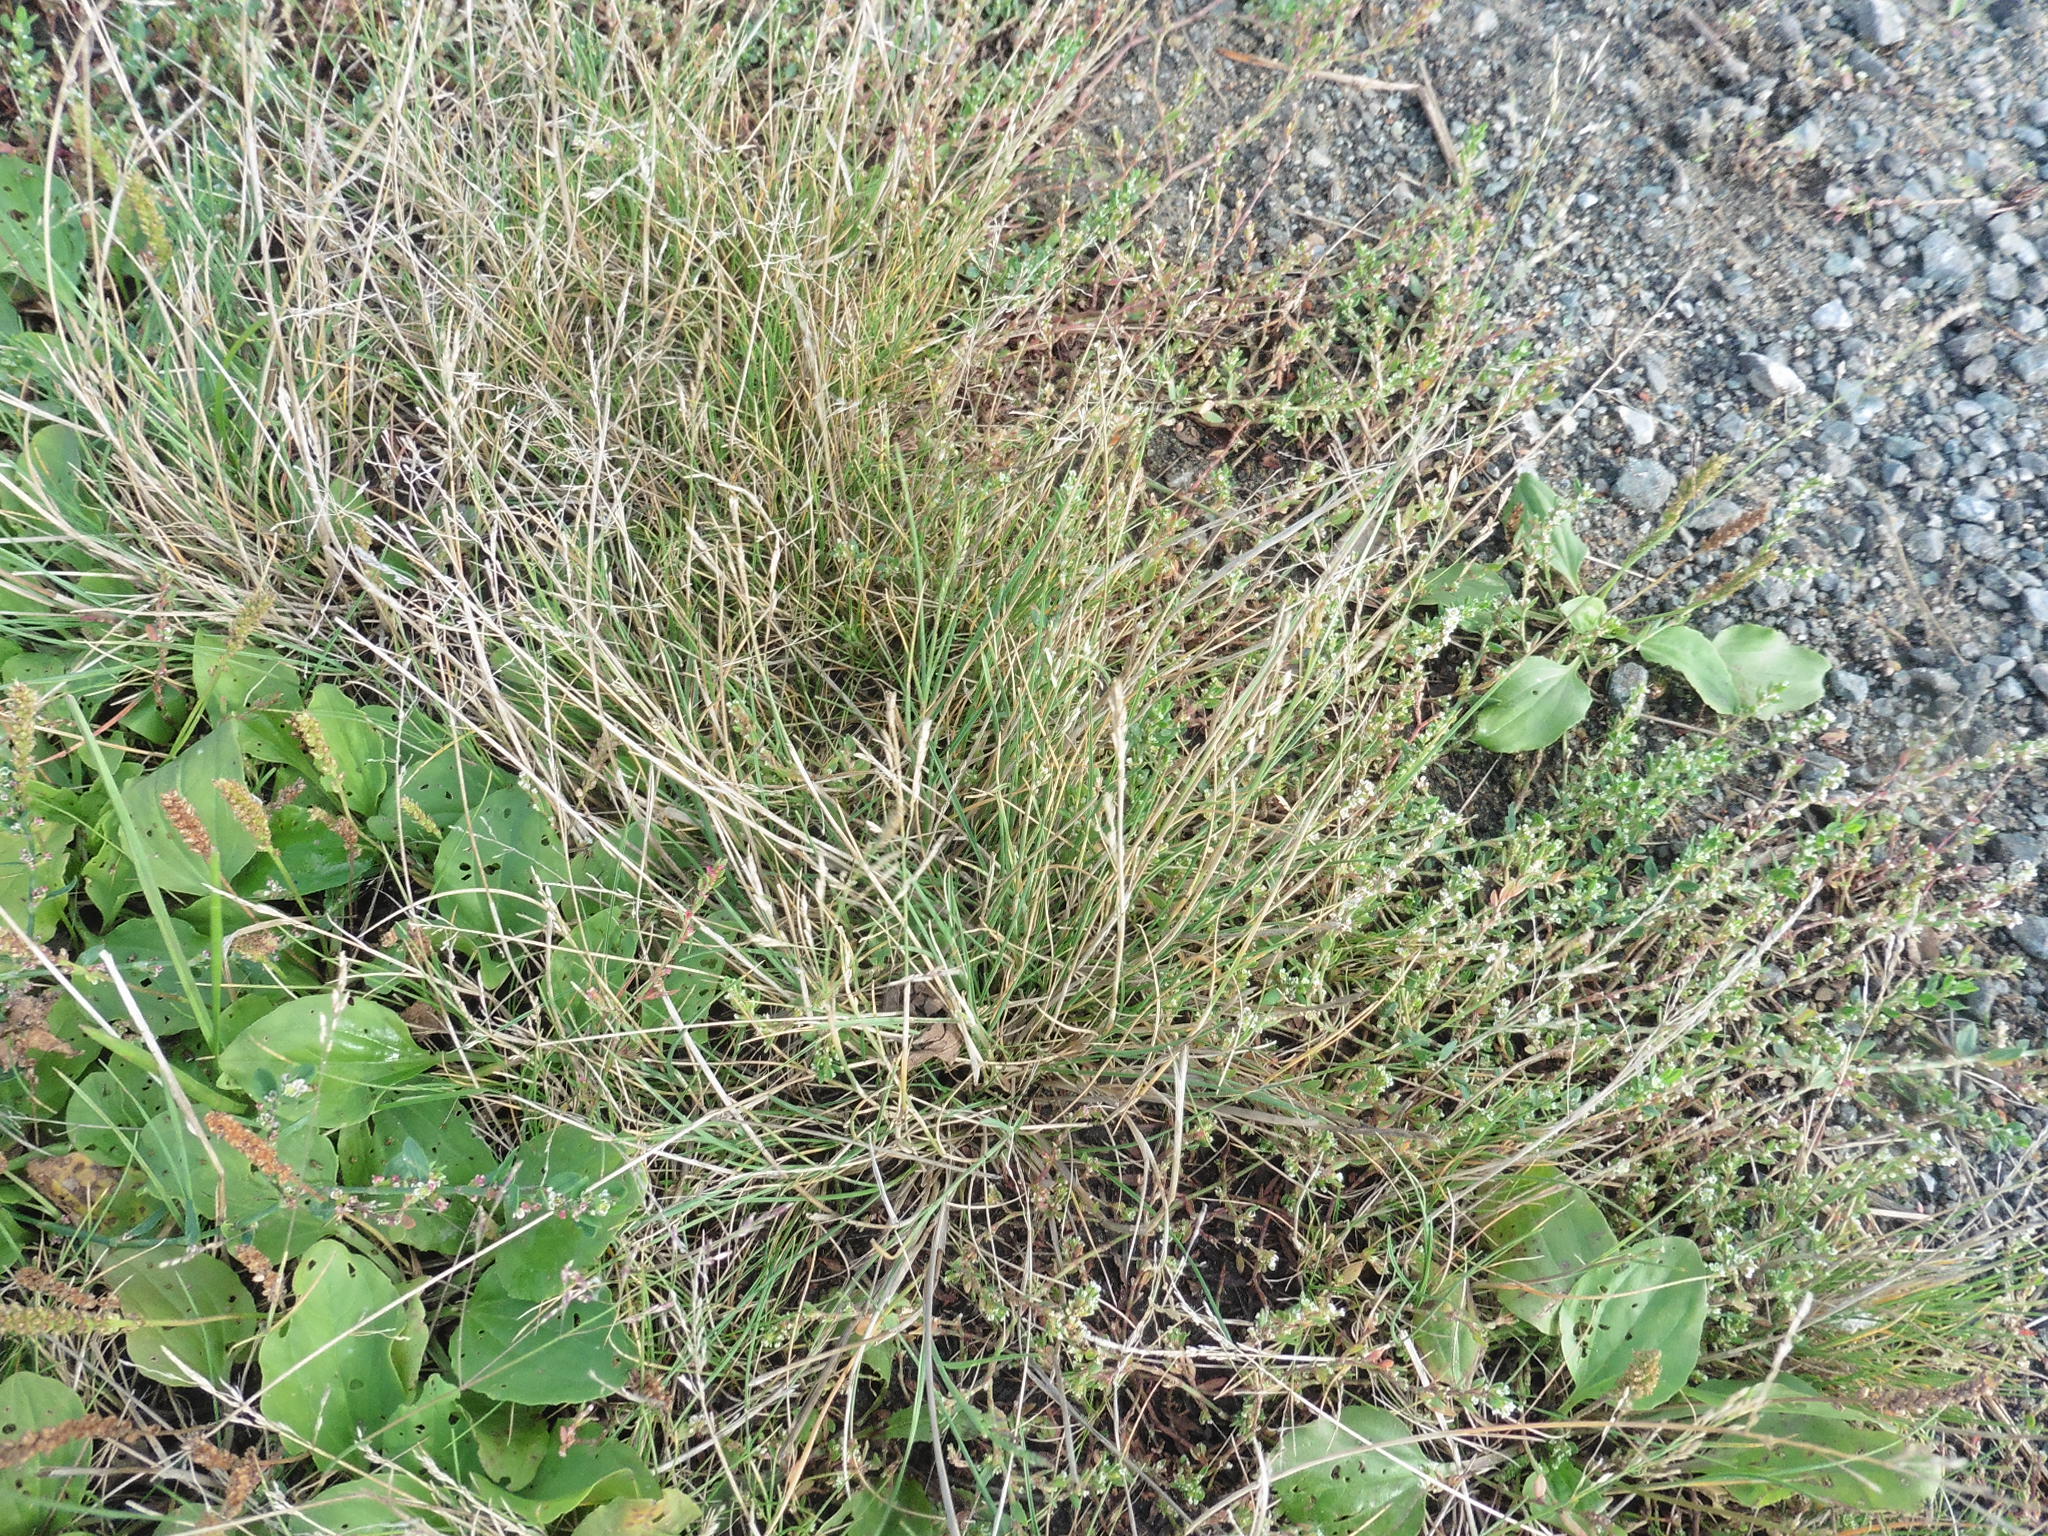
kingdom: Plantae
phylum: Tracheophyta
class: Liliopsida
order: Poales
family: Poaceae
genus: Puccinellia
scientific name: Puccinellia distans
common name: Weeping alkaligrass
